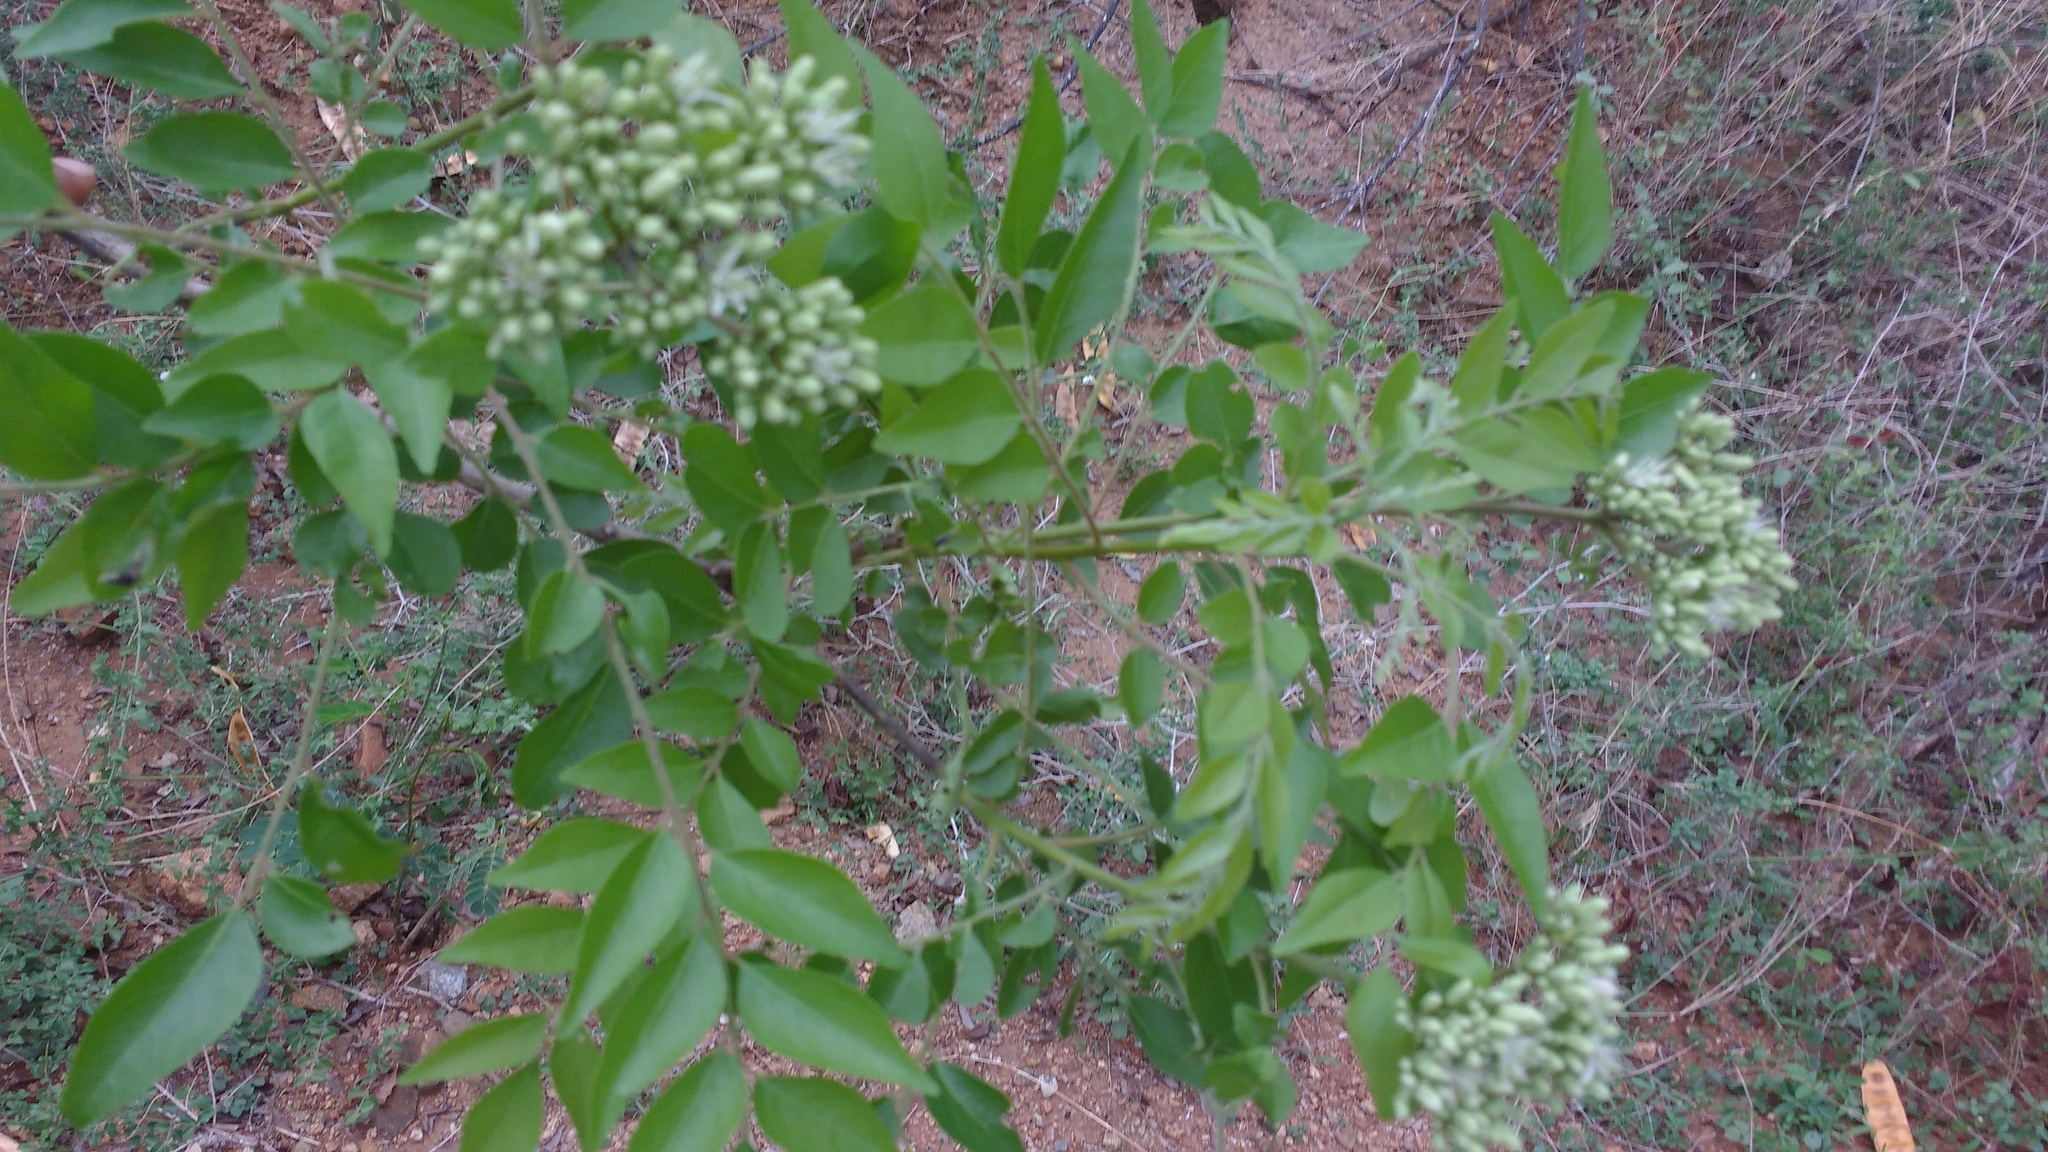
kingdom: Plantae
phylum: Tracheophyta
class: Magnoliopsida
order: Sapindales
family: Rutaceae
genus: Murraya
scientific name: Murraya koenigii
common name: Curry-plant
